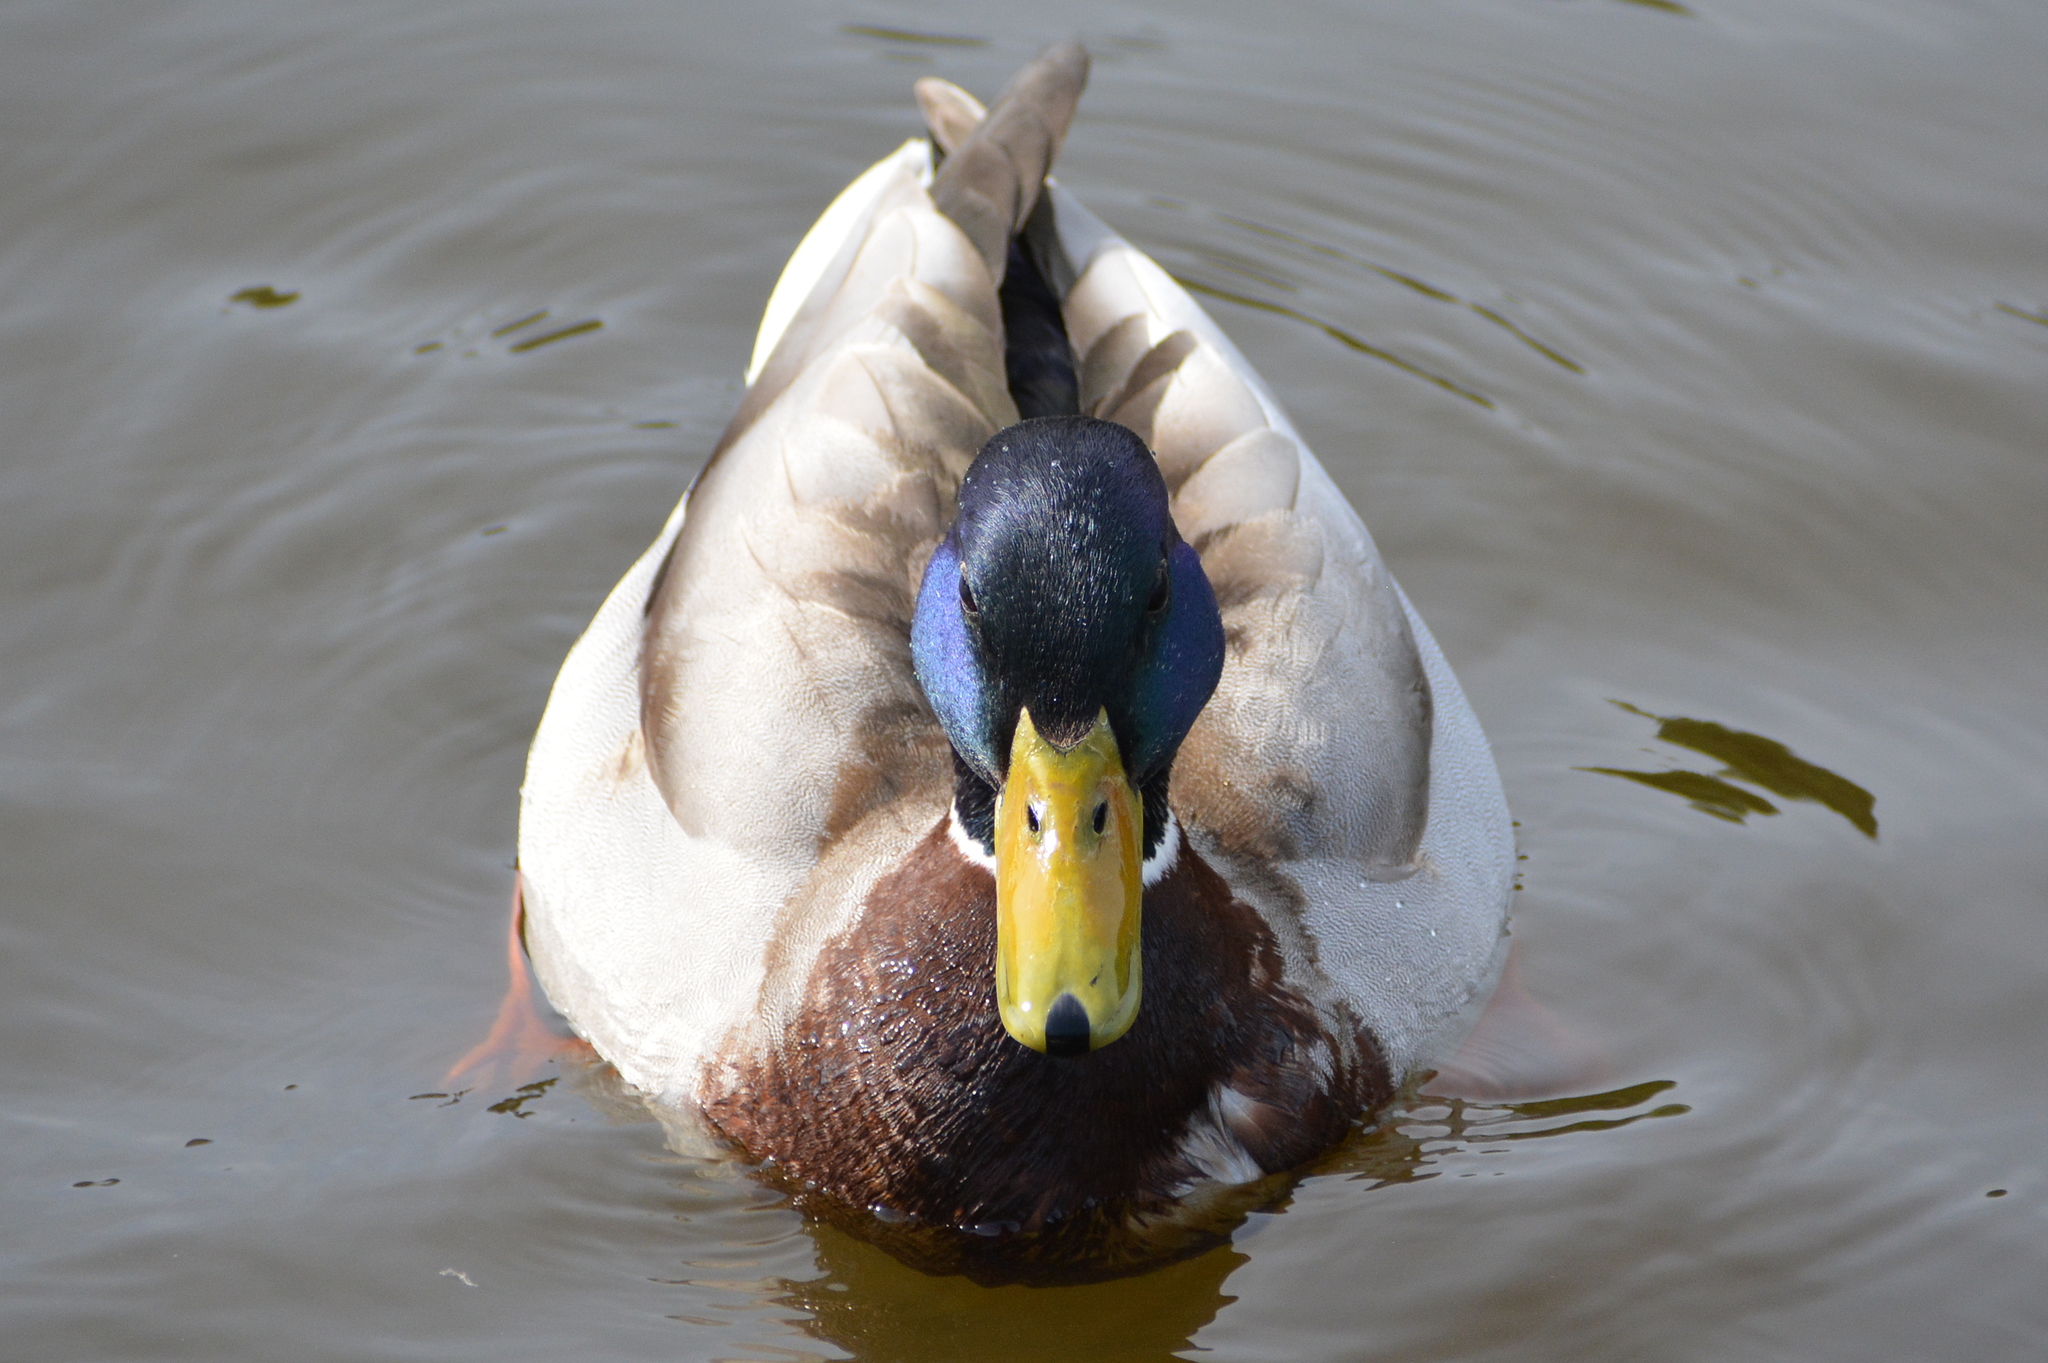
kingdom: Animalia
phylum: Chordata
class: Aves
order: Anseriformes
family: Anatidae
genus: Anas
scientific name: Anas platyrhynchos
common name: Mallard
